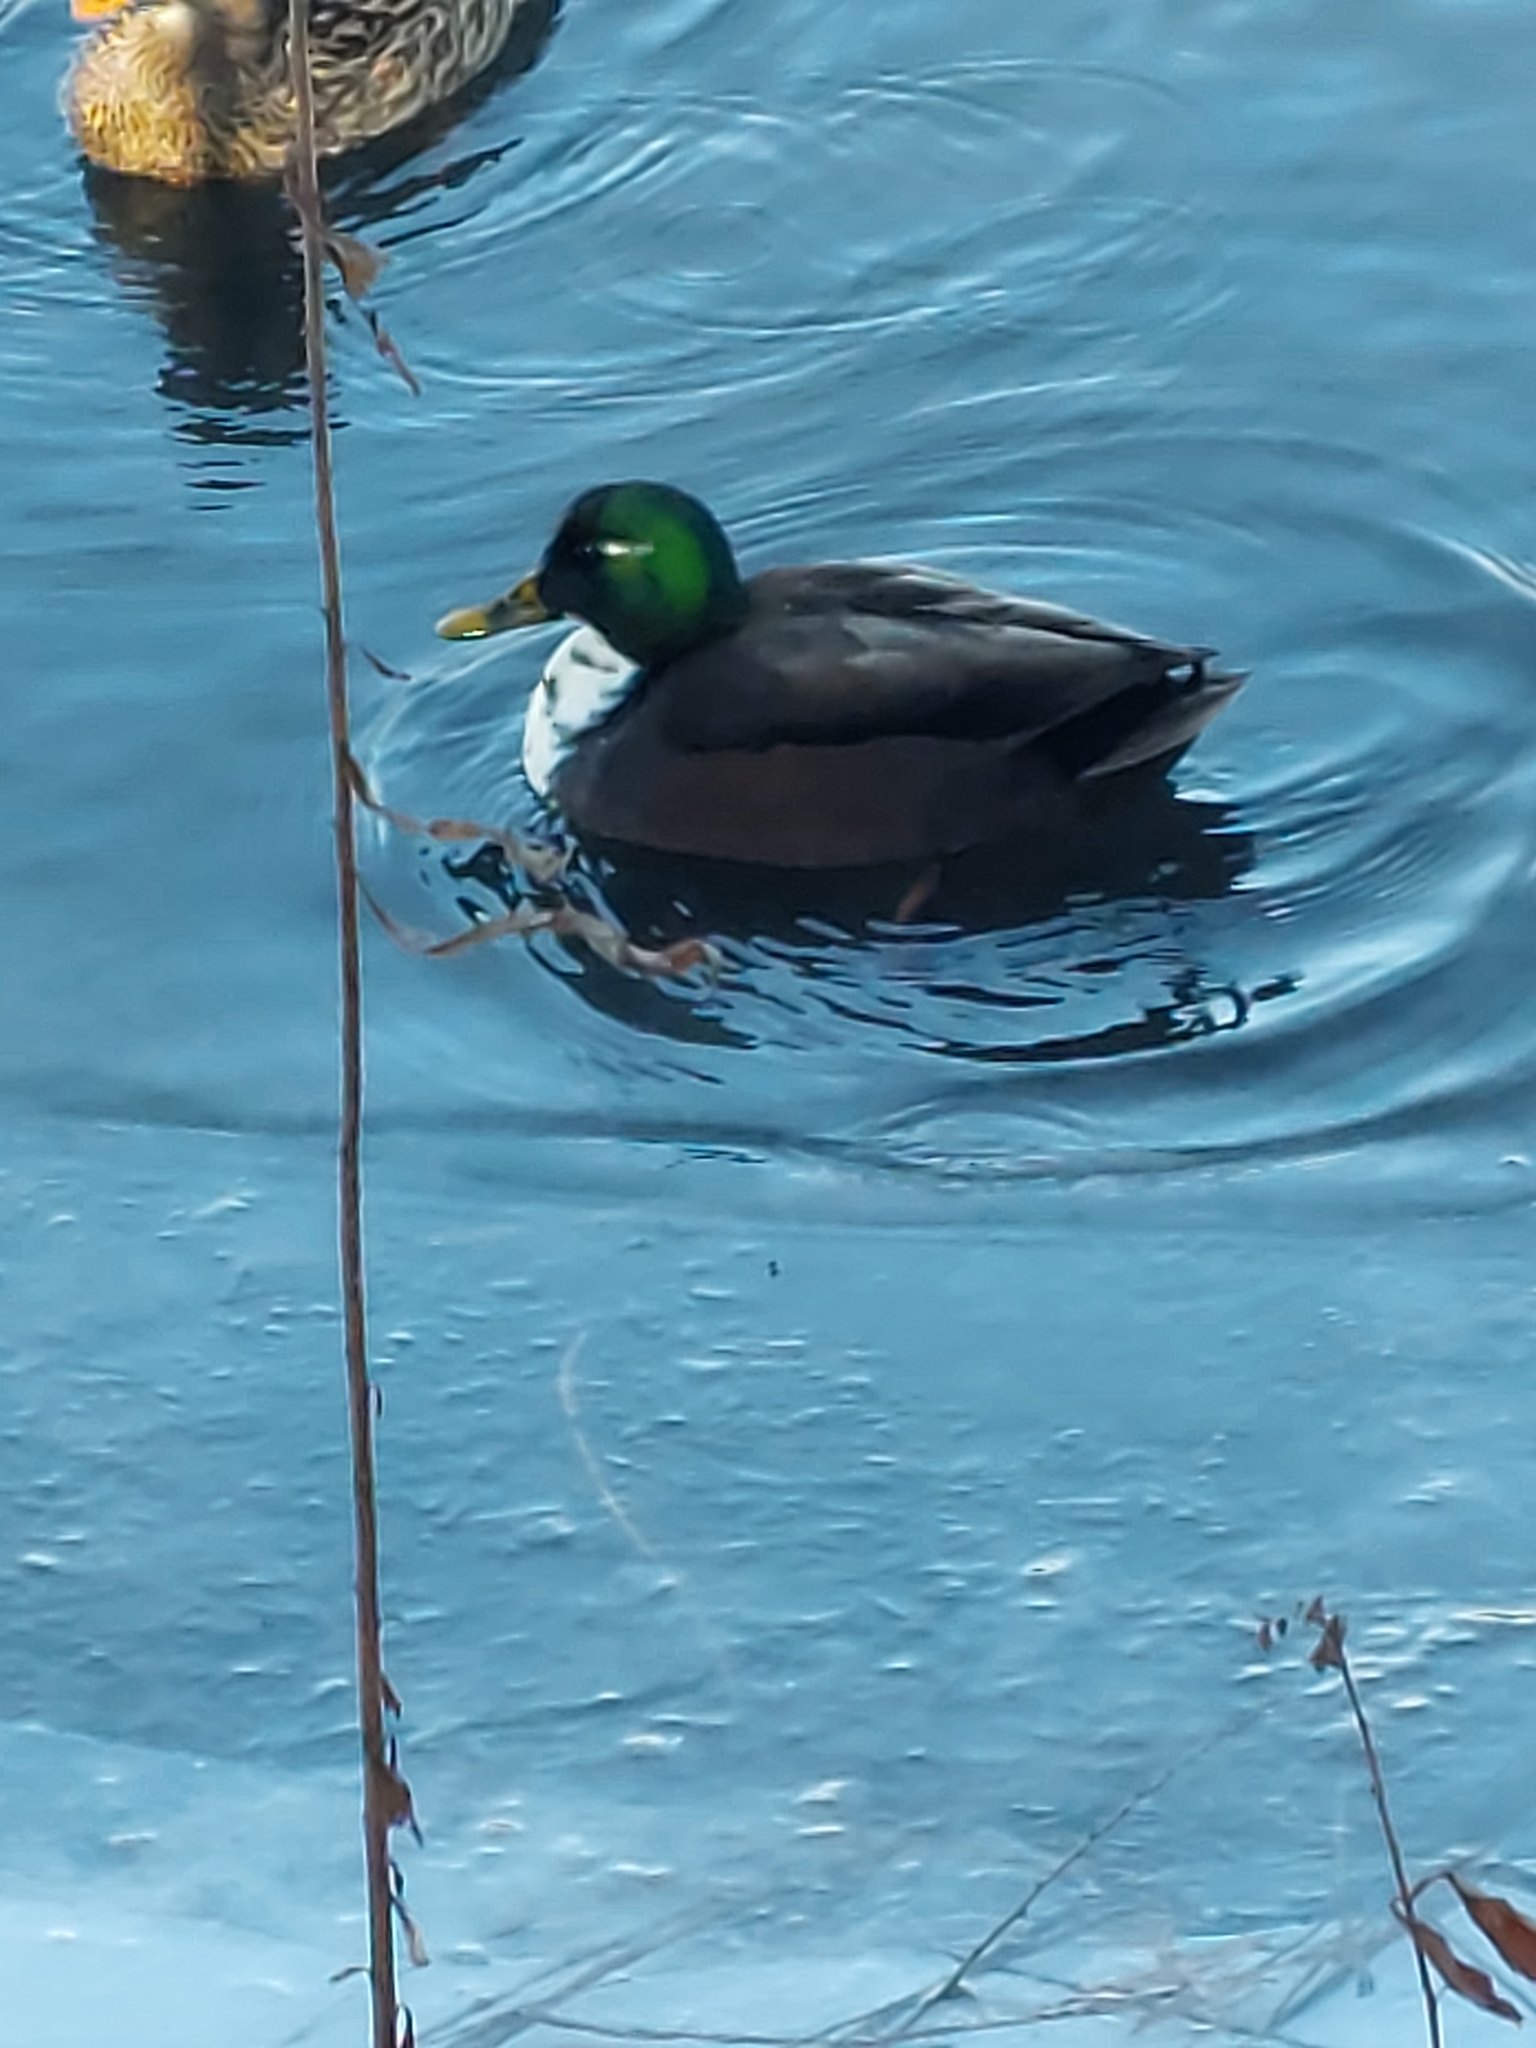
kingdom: Animalia
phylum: Chordata
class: Aves
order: Anseriformes
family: Anatidae
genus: Anas
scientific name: Anas platyrhynchos
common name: Mallard
